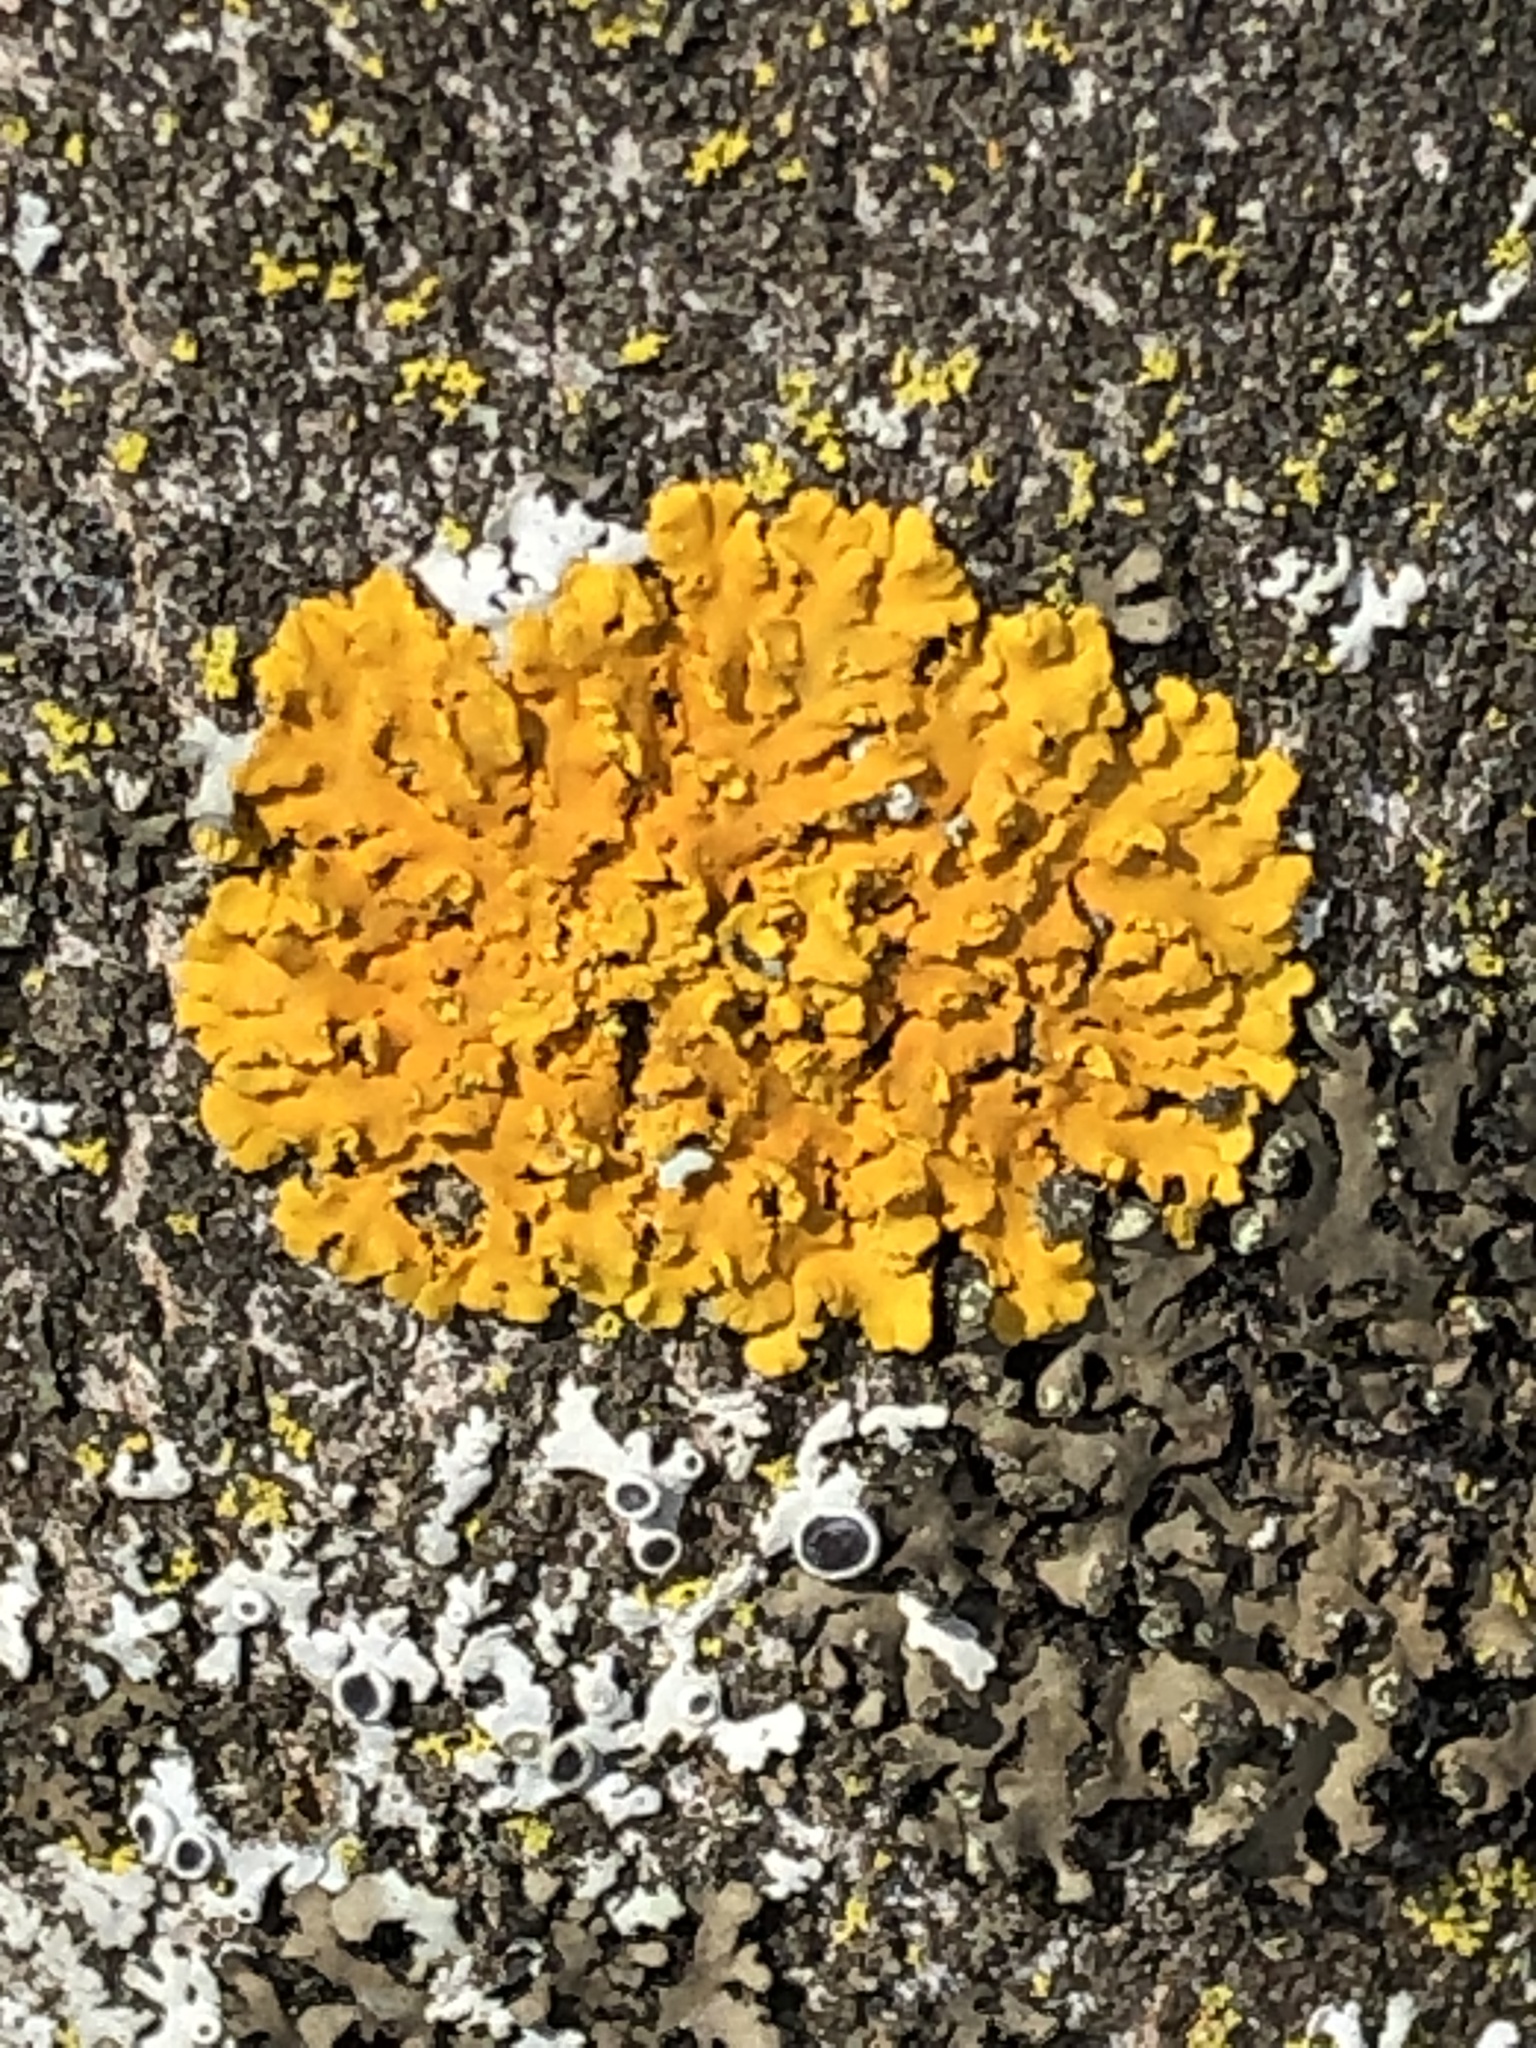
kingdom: Fungi
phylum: Ascomycota
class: Lecanoromycetes
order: Teloschistales
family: Teloschistaceae
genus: Oxneria
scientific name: Oxneria fallax
